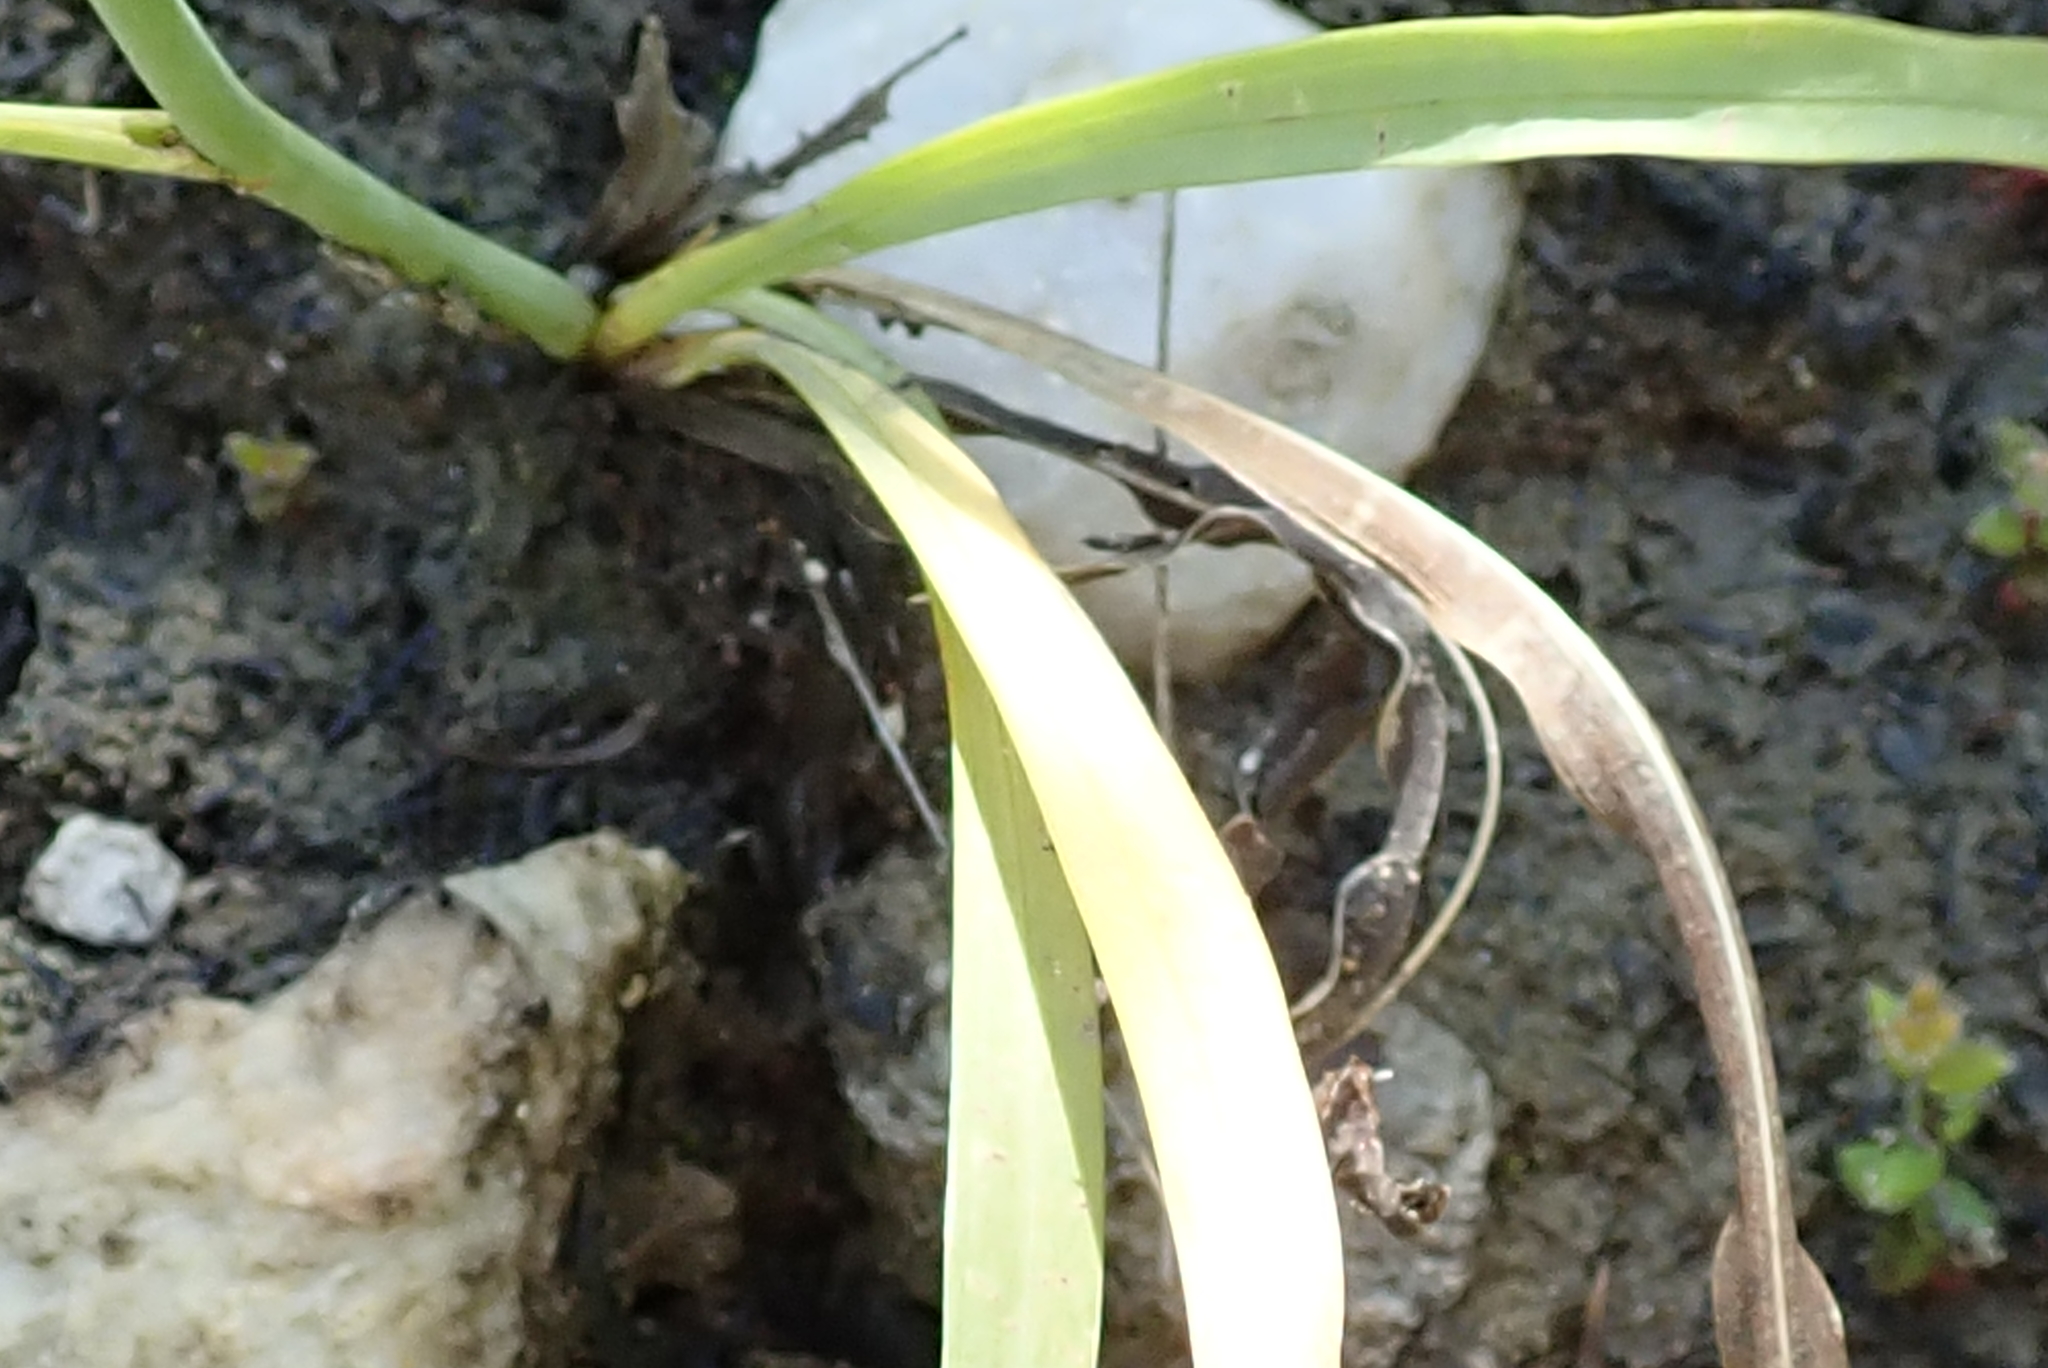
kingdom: Plantae
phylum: Tracheophyta
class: Liliopsida
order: Asparagales
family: Iridaceae
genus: Tritoniopsis
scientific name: Tritoniopsis ramosa
